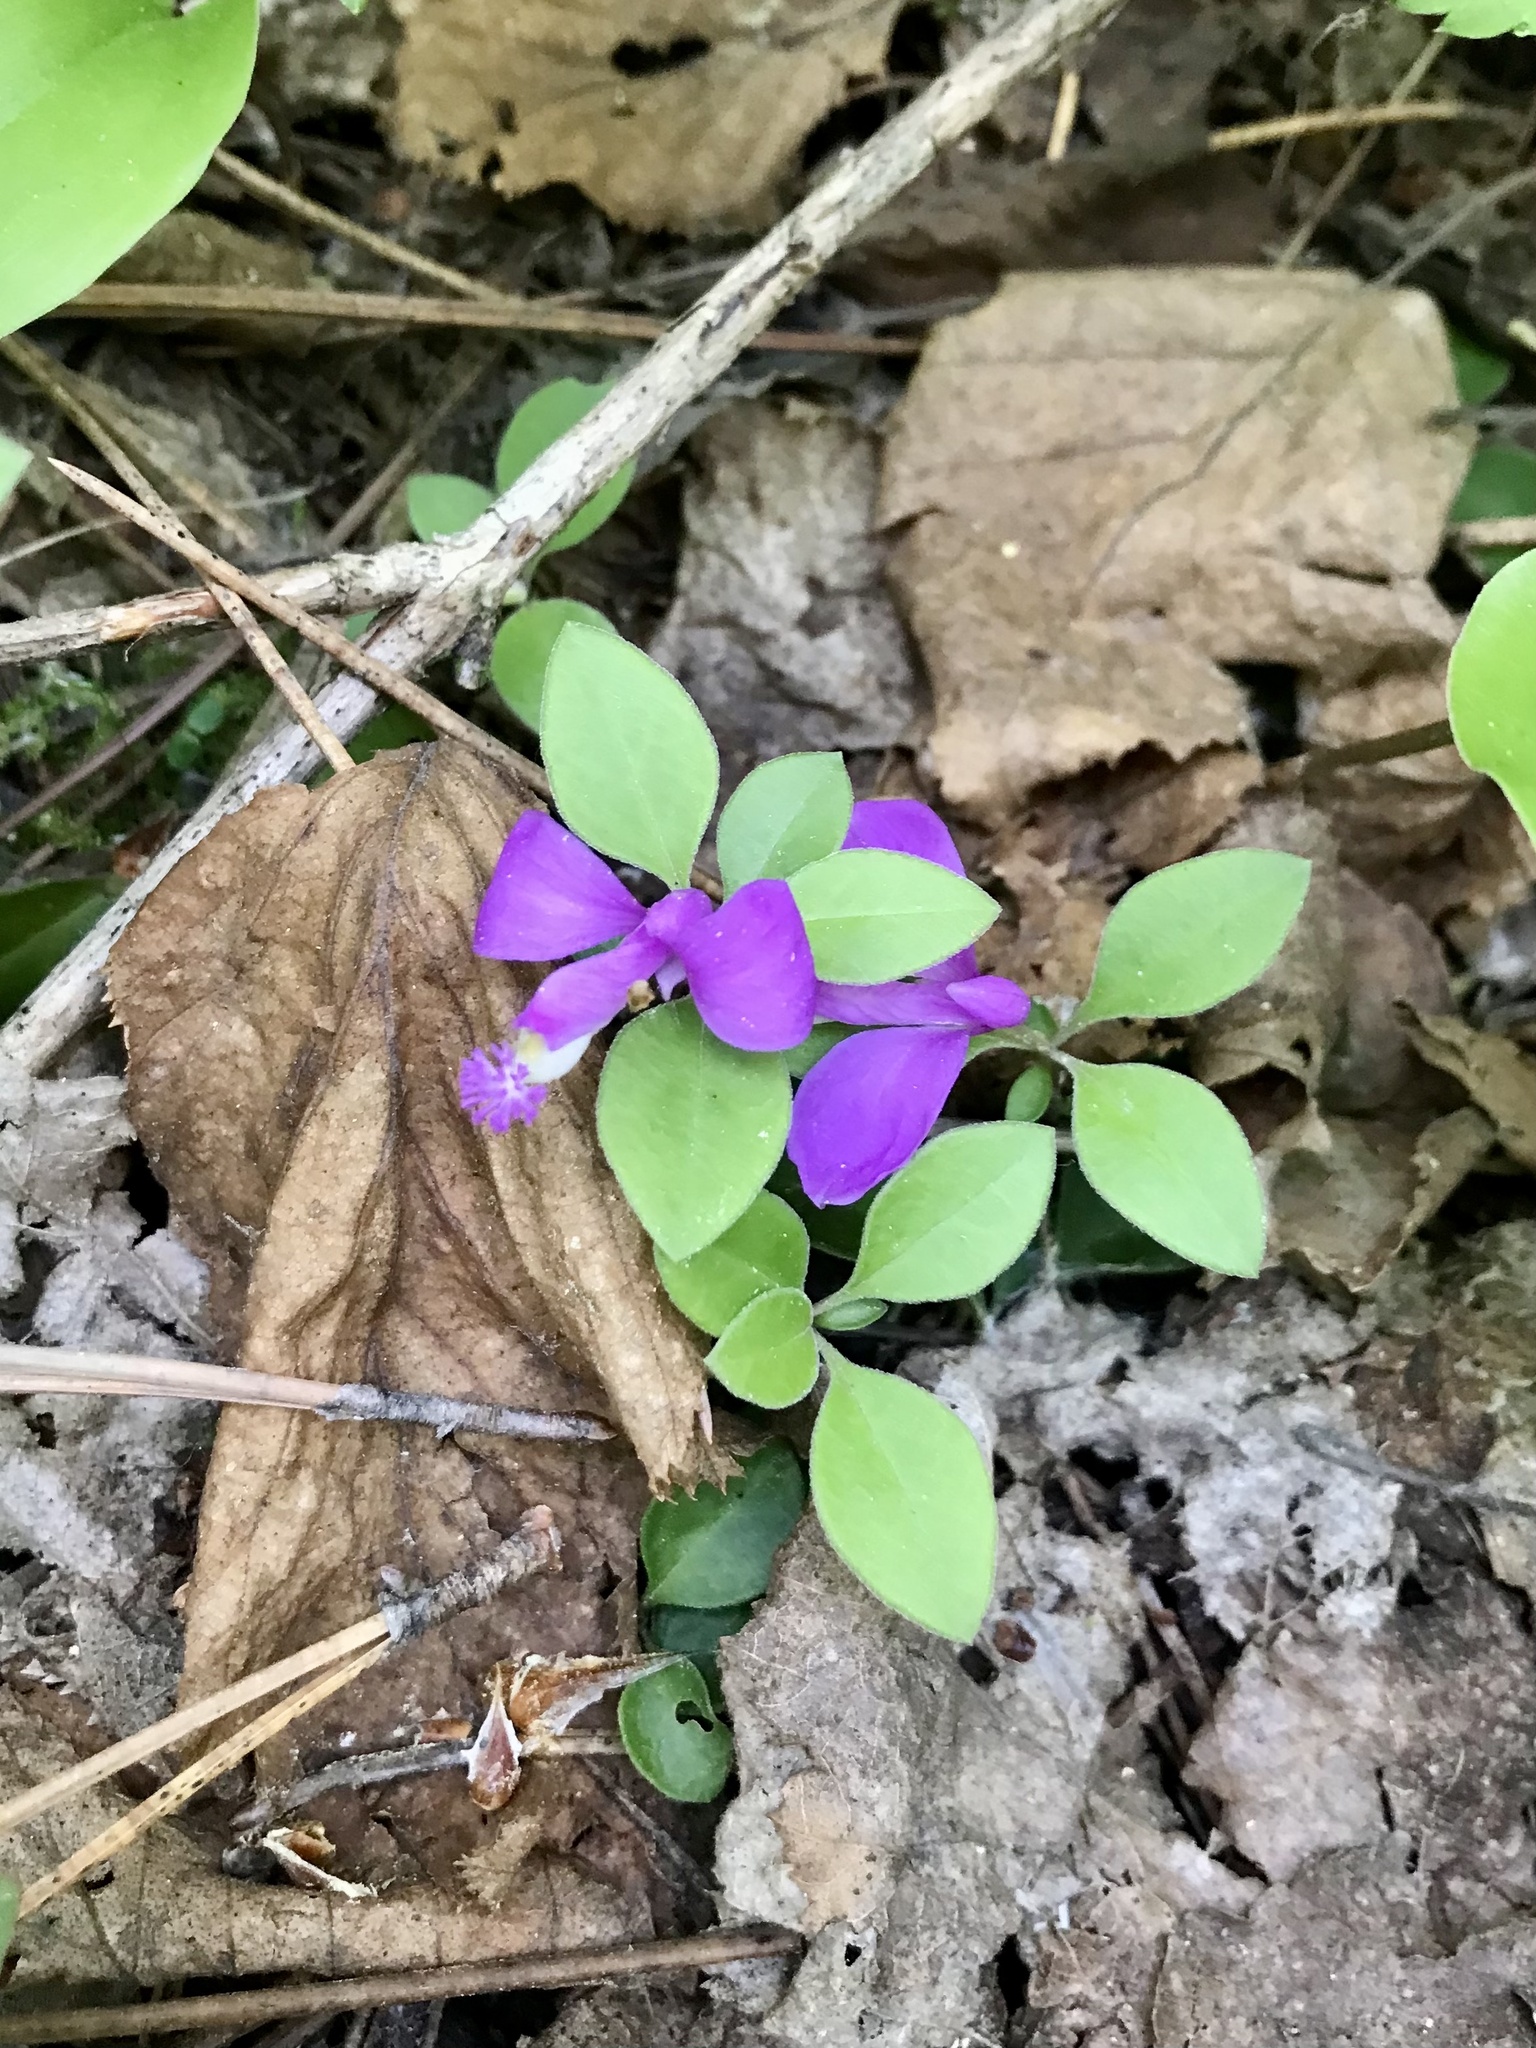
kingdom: Plantae
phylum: Tracheophyta
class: Magnoliopsida
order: Fabales
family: Polygalaceae
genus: Polygaloides
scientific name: Polygaloides paucifolia
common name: Bird-on-the-wing
